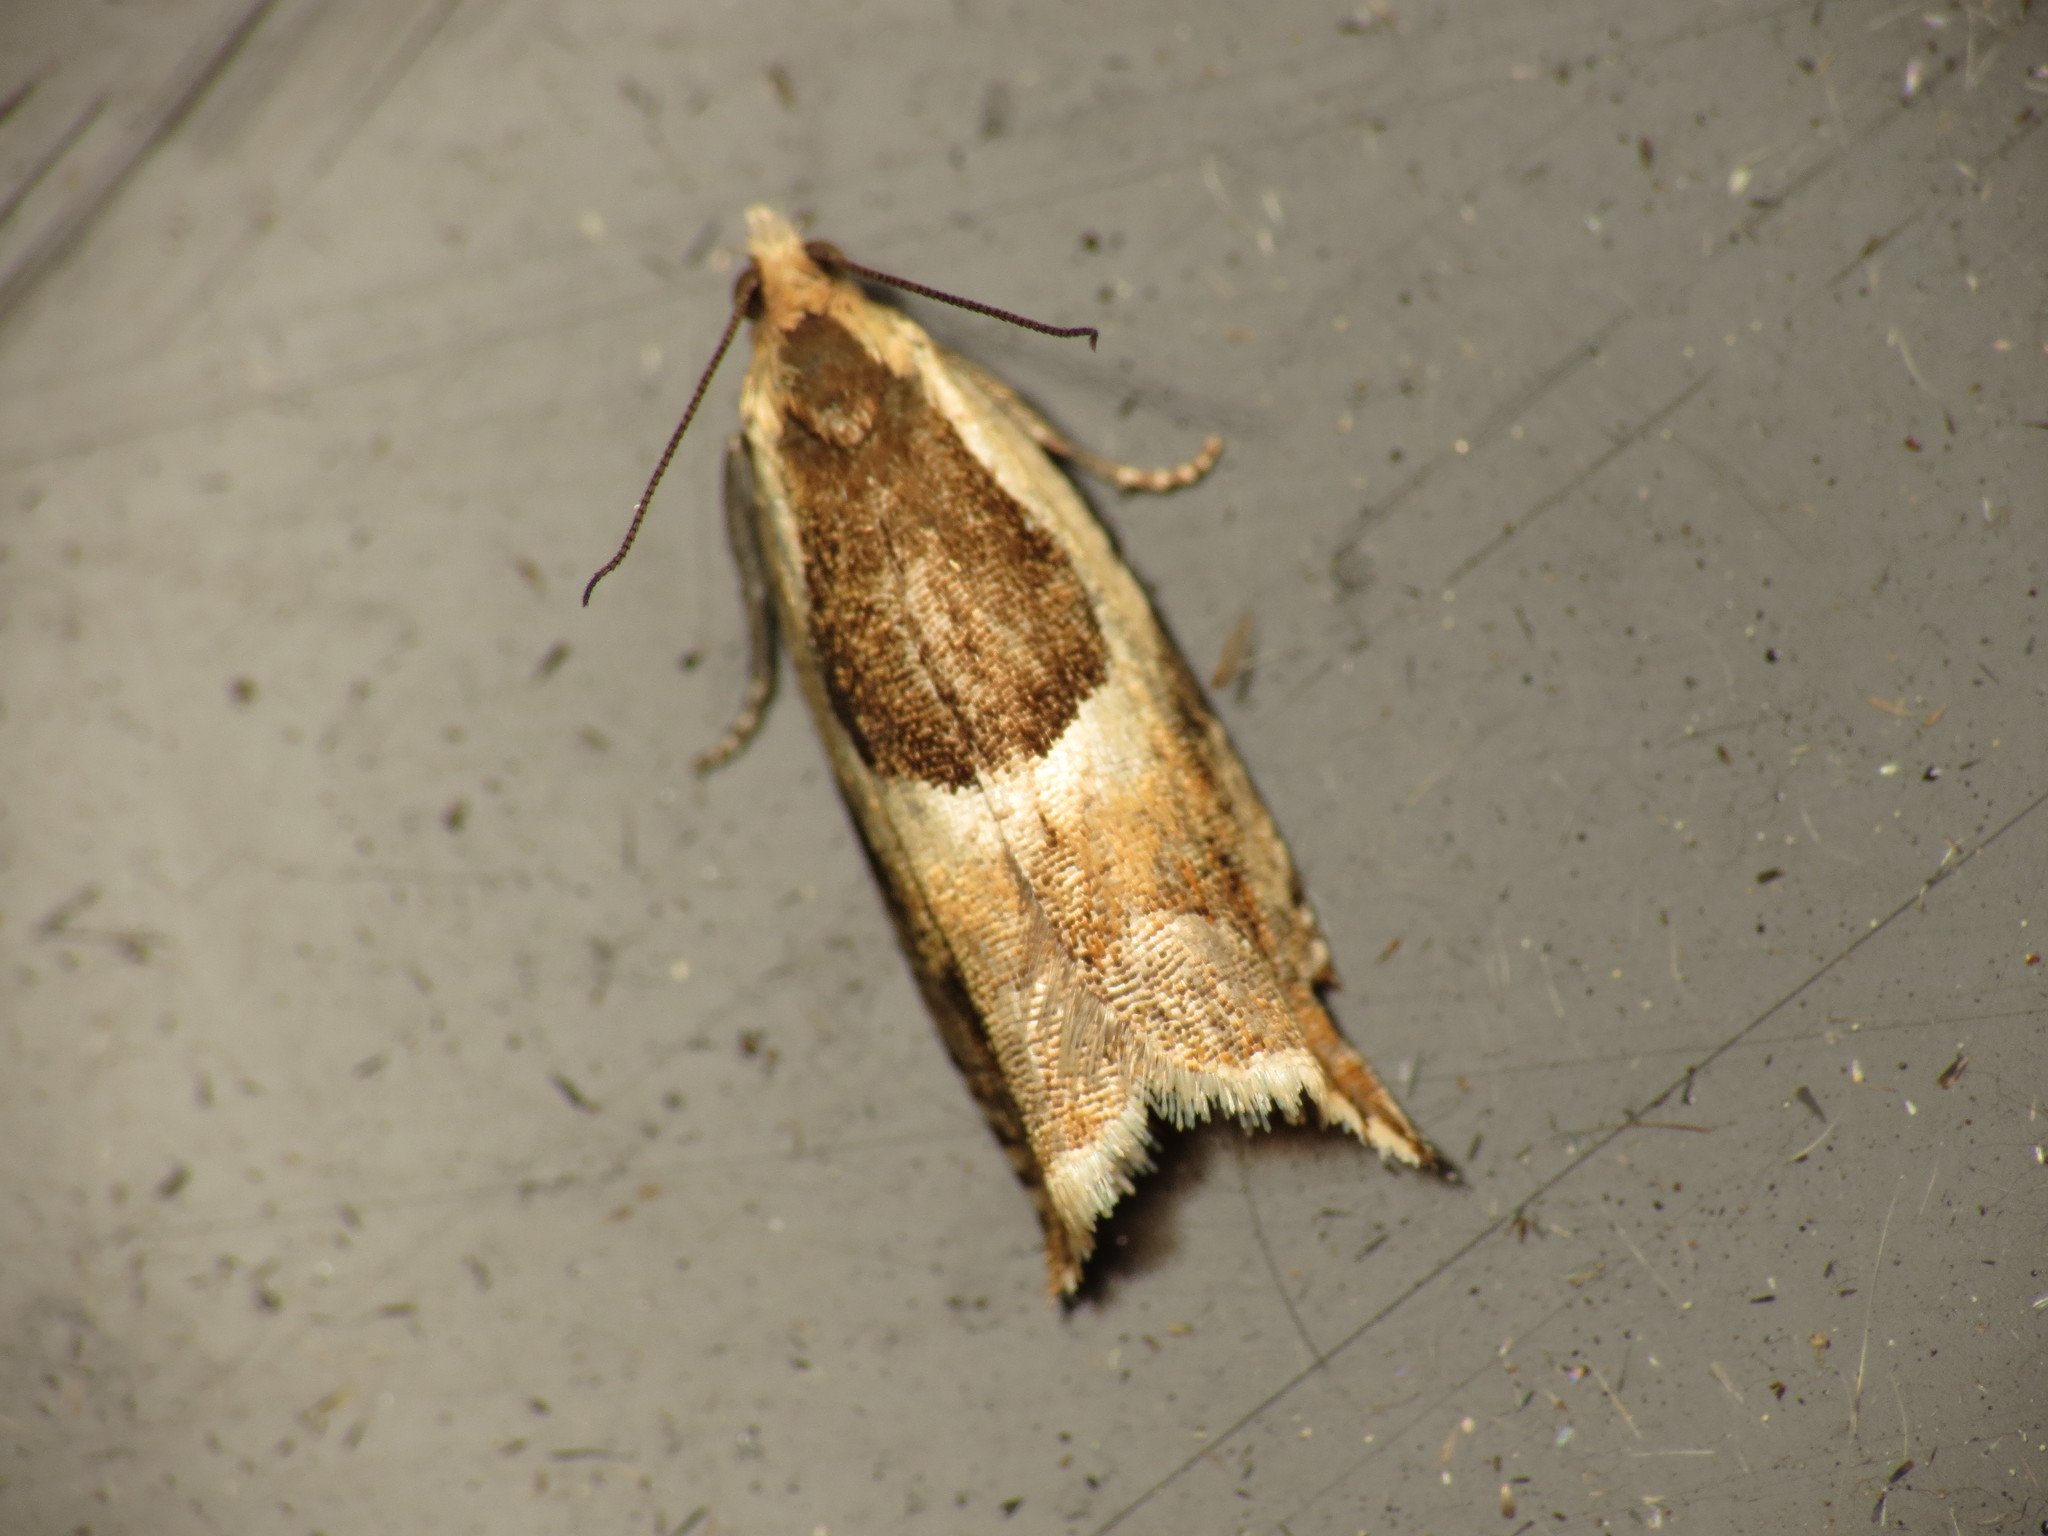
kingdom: Animalia
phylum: Arthropoda
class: Insecta
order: Lepidoptera
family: Tortricidae
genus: Ancylis
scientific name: Ancylis badiana
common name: Common roller
